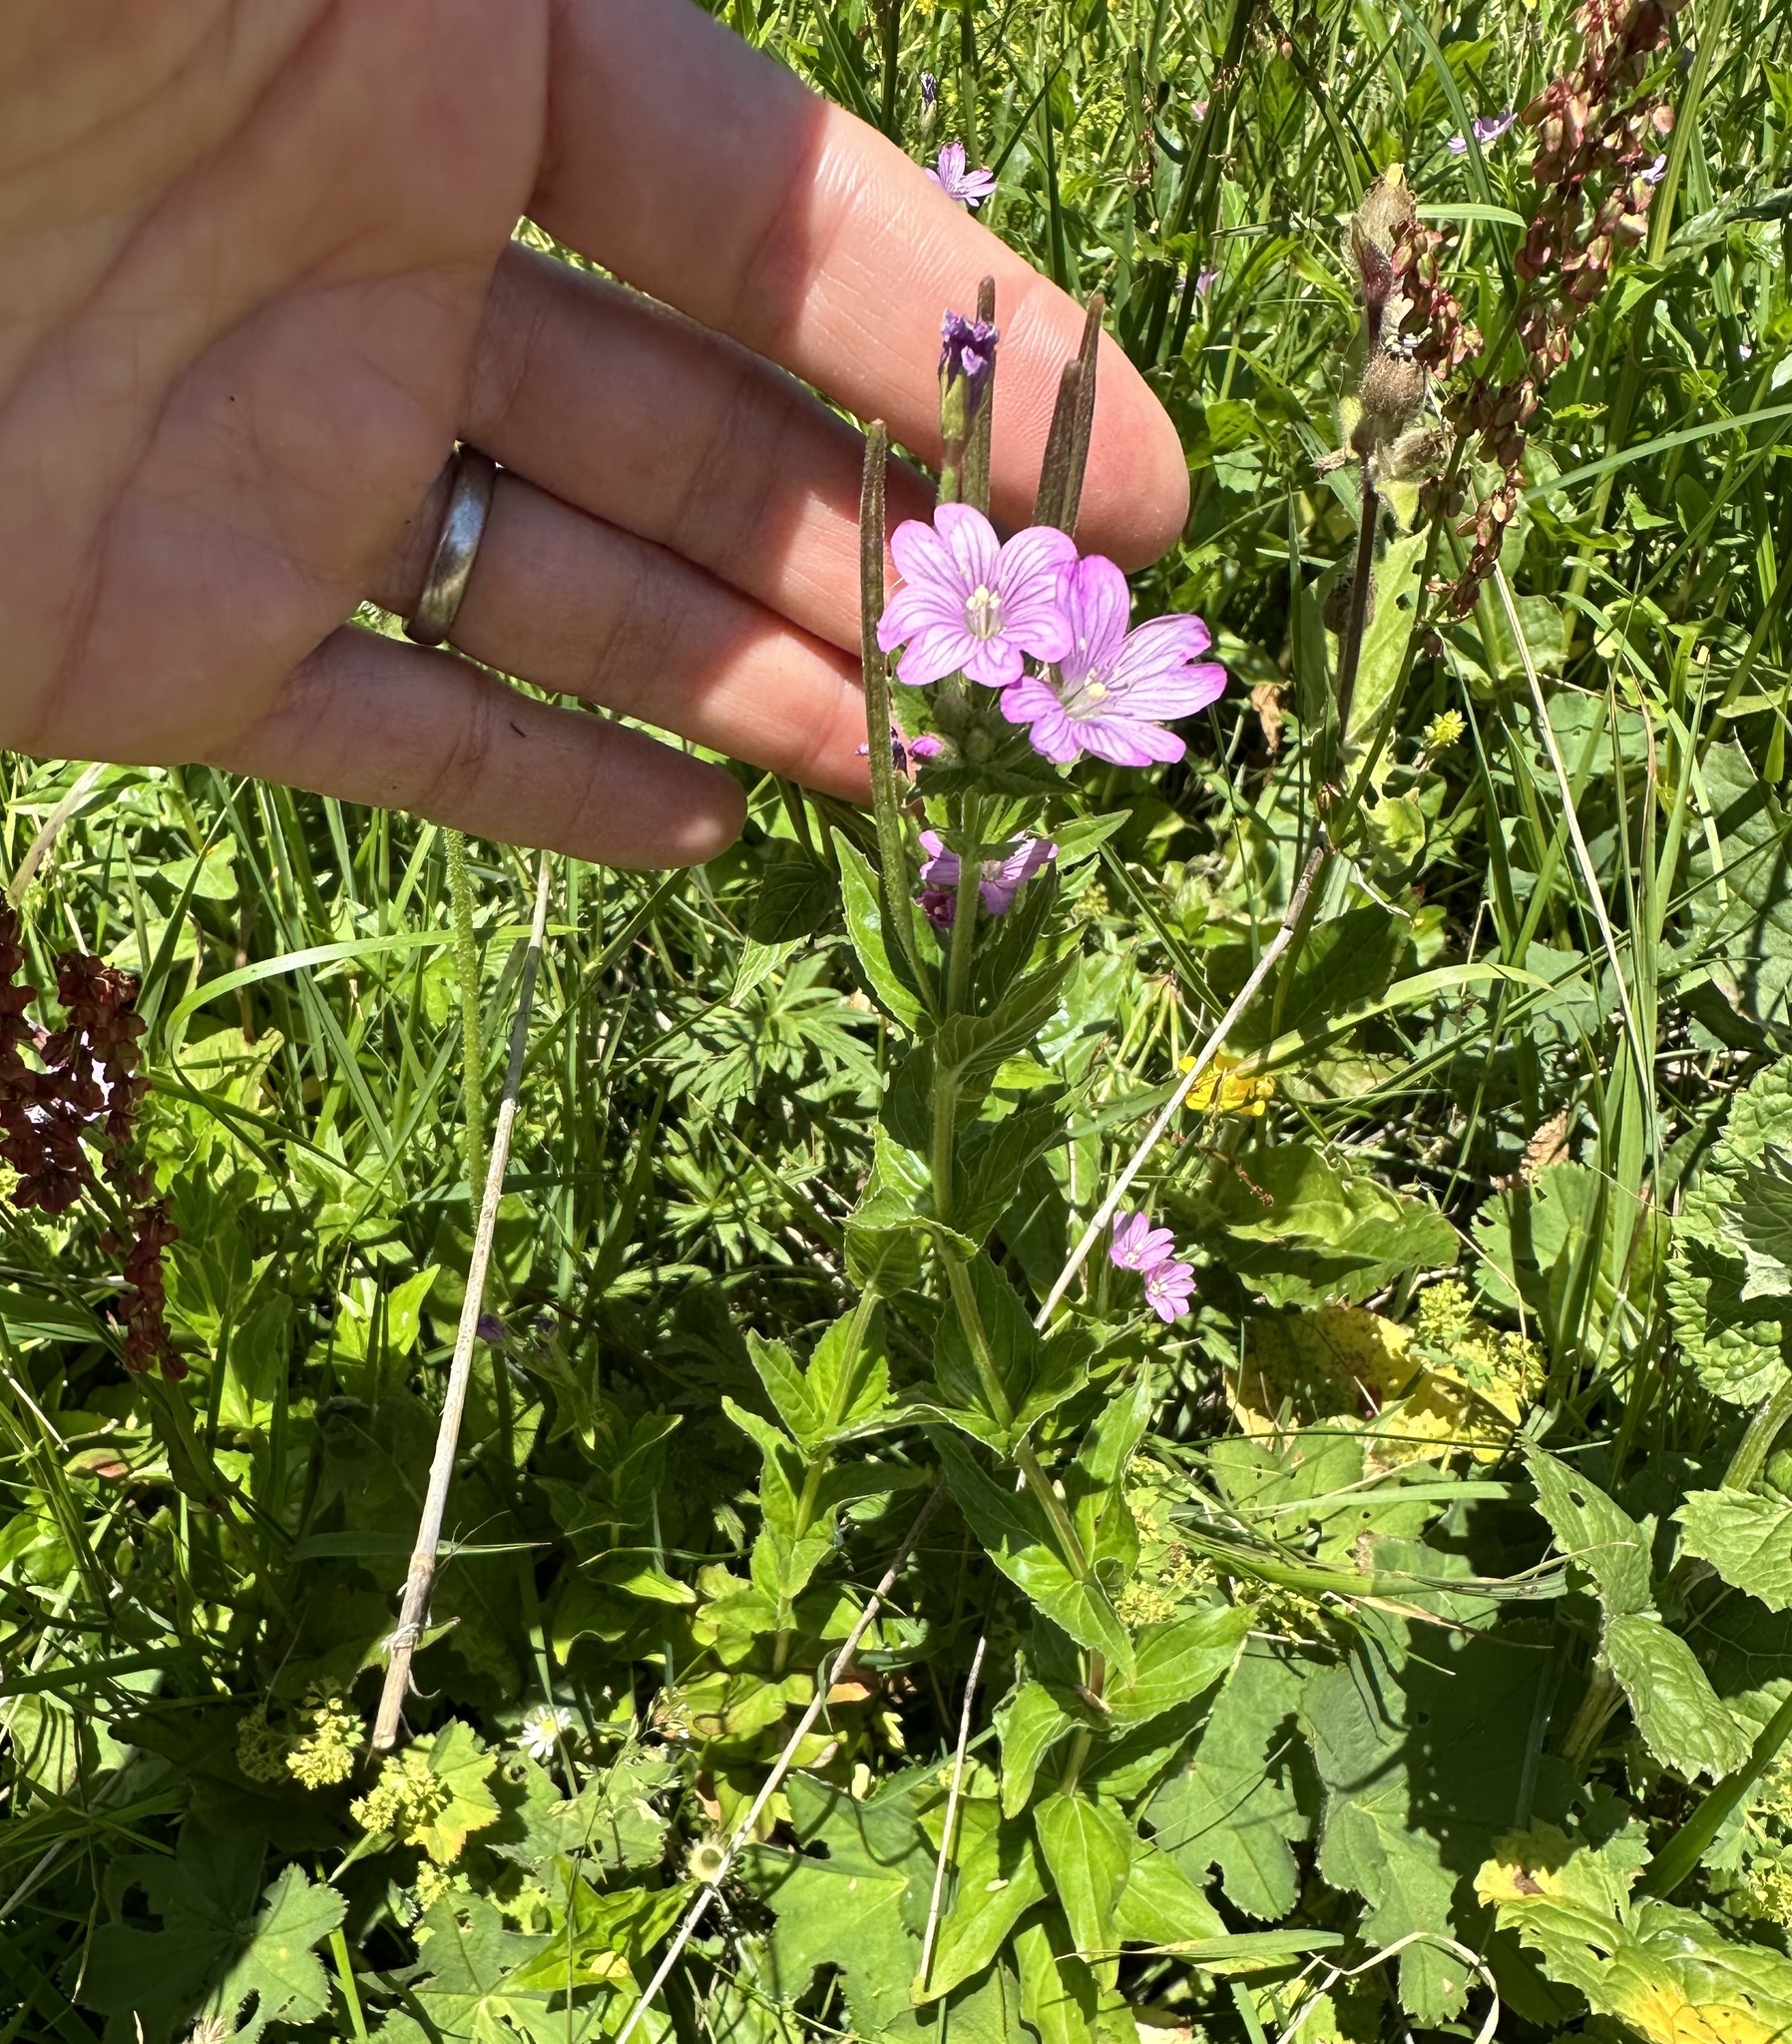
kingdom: Plantae
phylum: Tracheophyta
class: Magnoliopsida
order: Myrtales
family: Onagraceae
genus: Epilobium
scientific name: Epilobium alpestre
